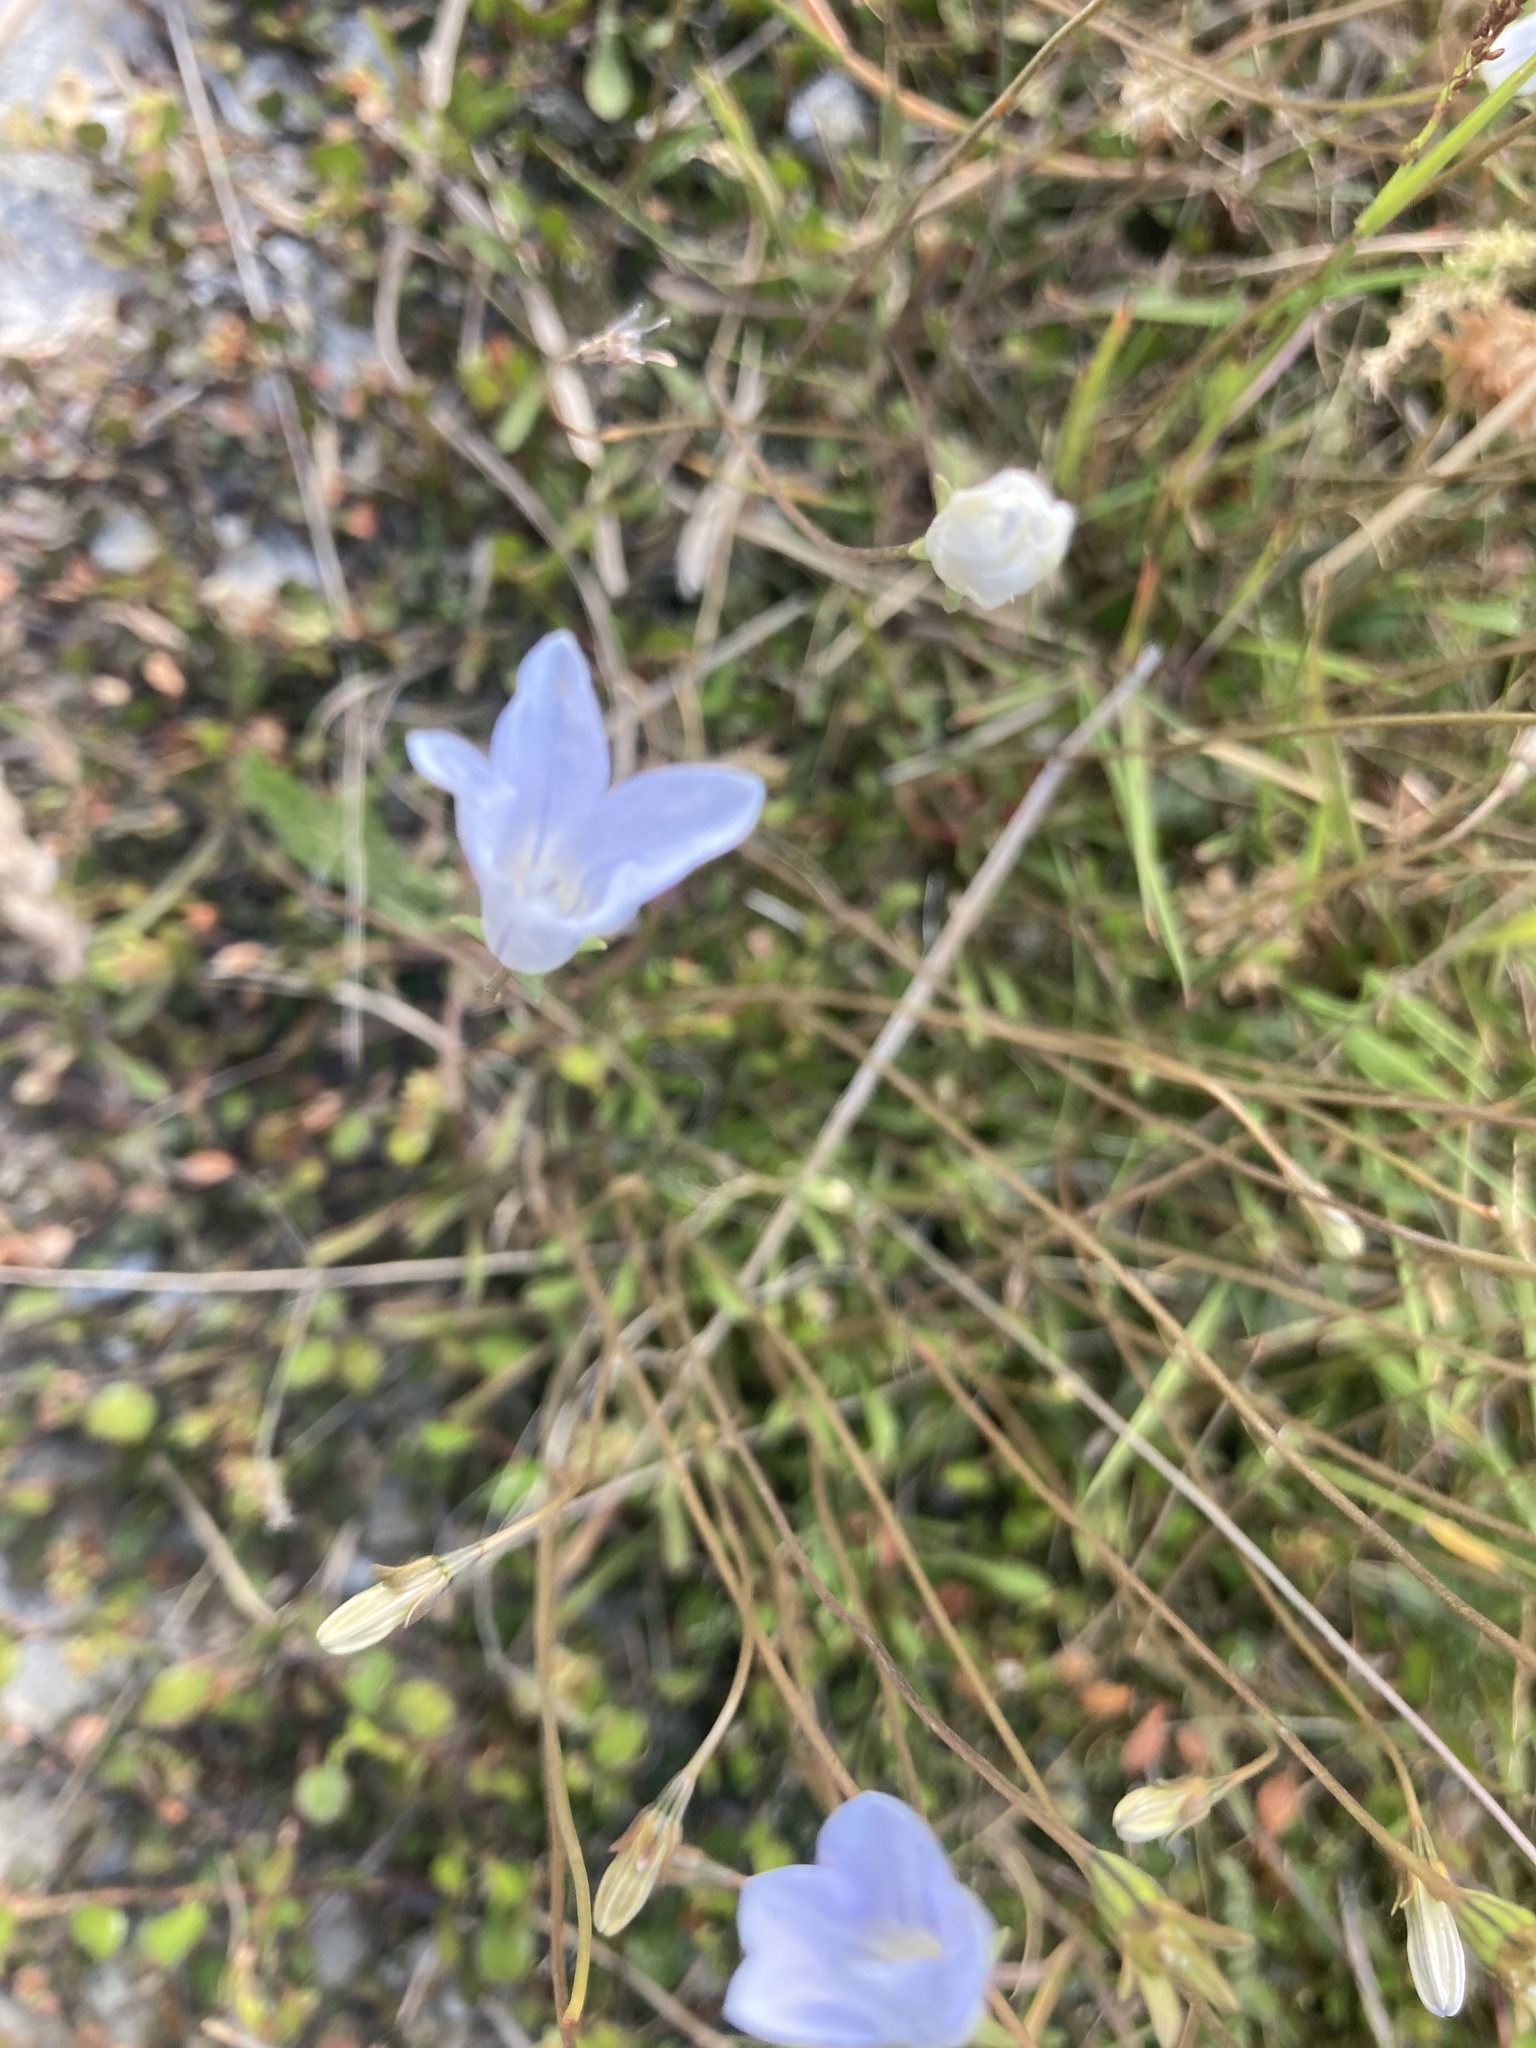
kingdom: Plantae
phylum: Tracheophyta
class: Magnoliopsida
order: Asterales
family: Campanulaceae
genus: Wahlenbergia
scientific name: Wahlenbergia albomarginata
